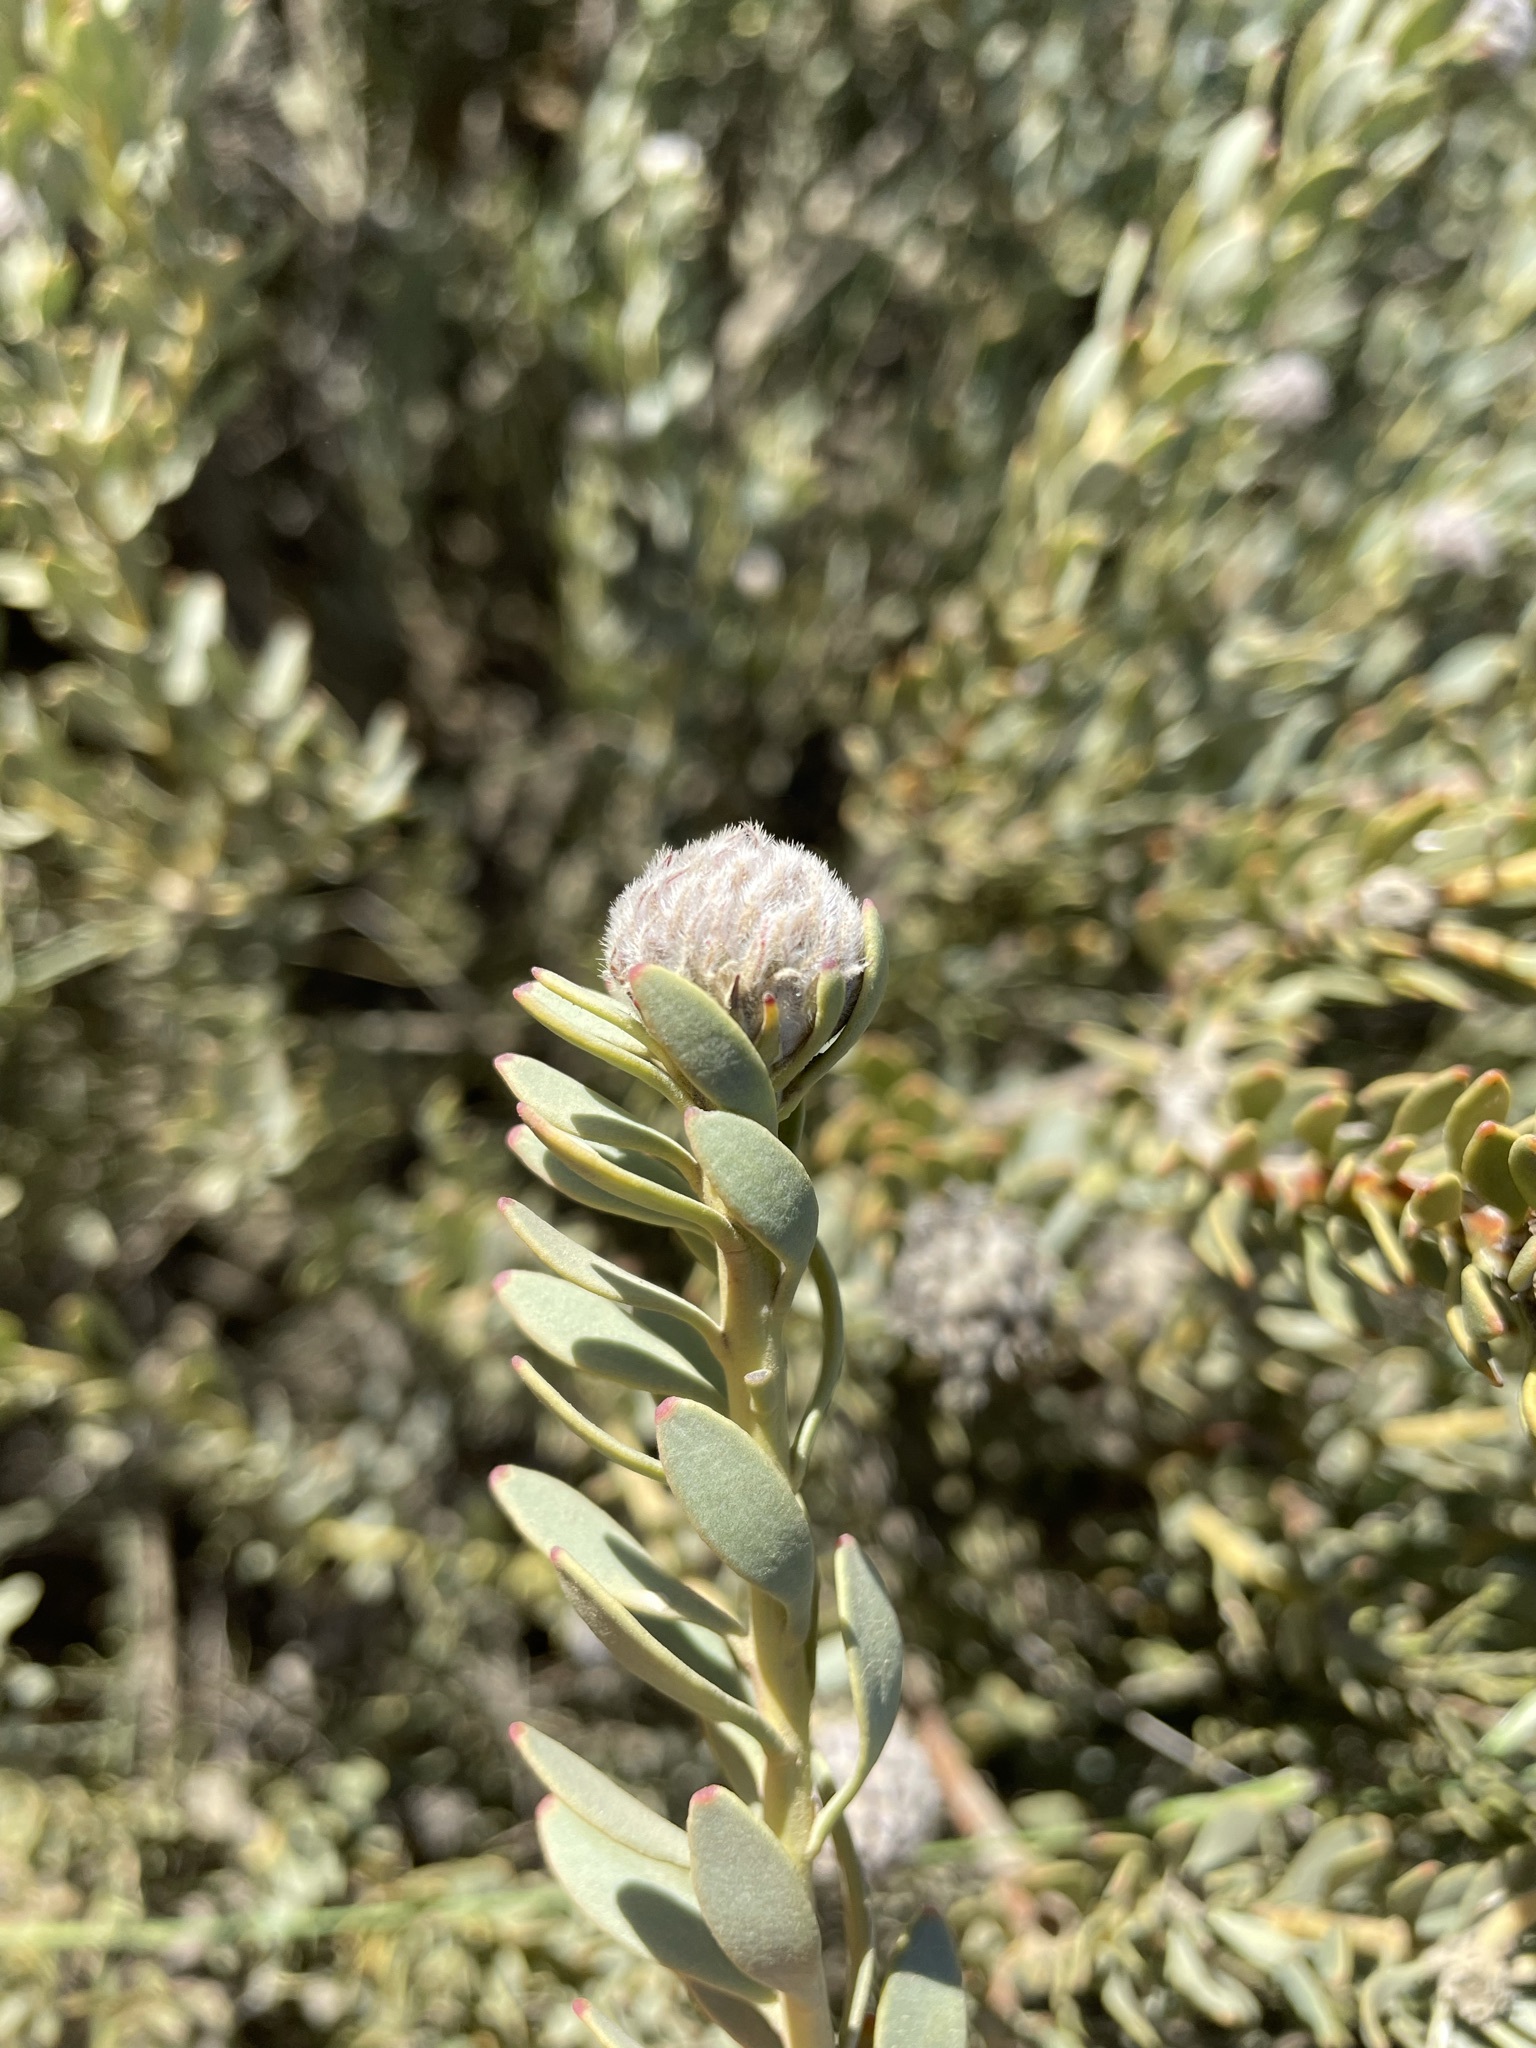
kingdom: Plantae
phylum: Tracheophyta
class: Magnoliopsida
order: Proteales
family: Proteaceae
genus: Vexatorella
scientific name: Vexatorella amoena
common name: Swartruggens vexator
